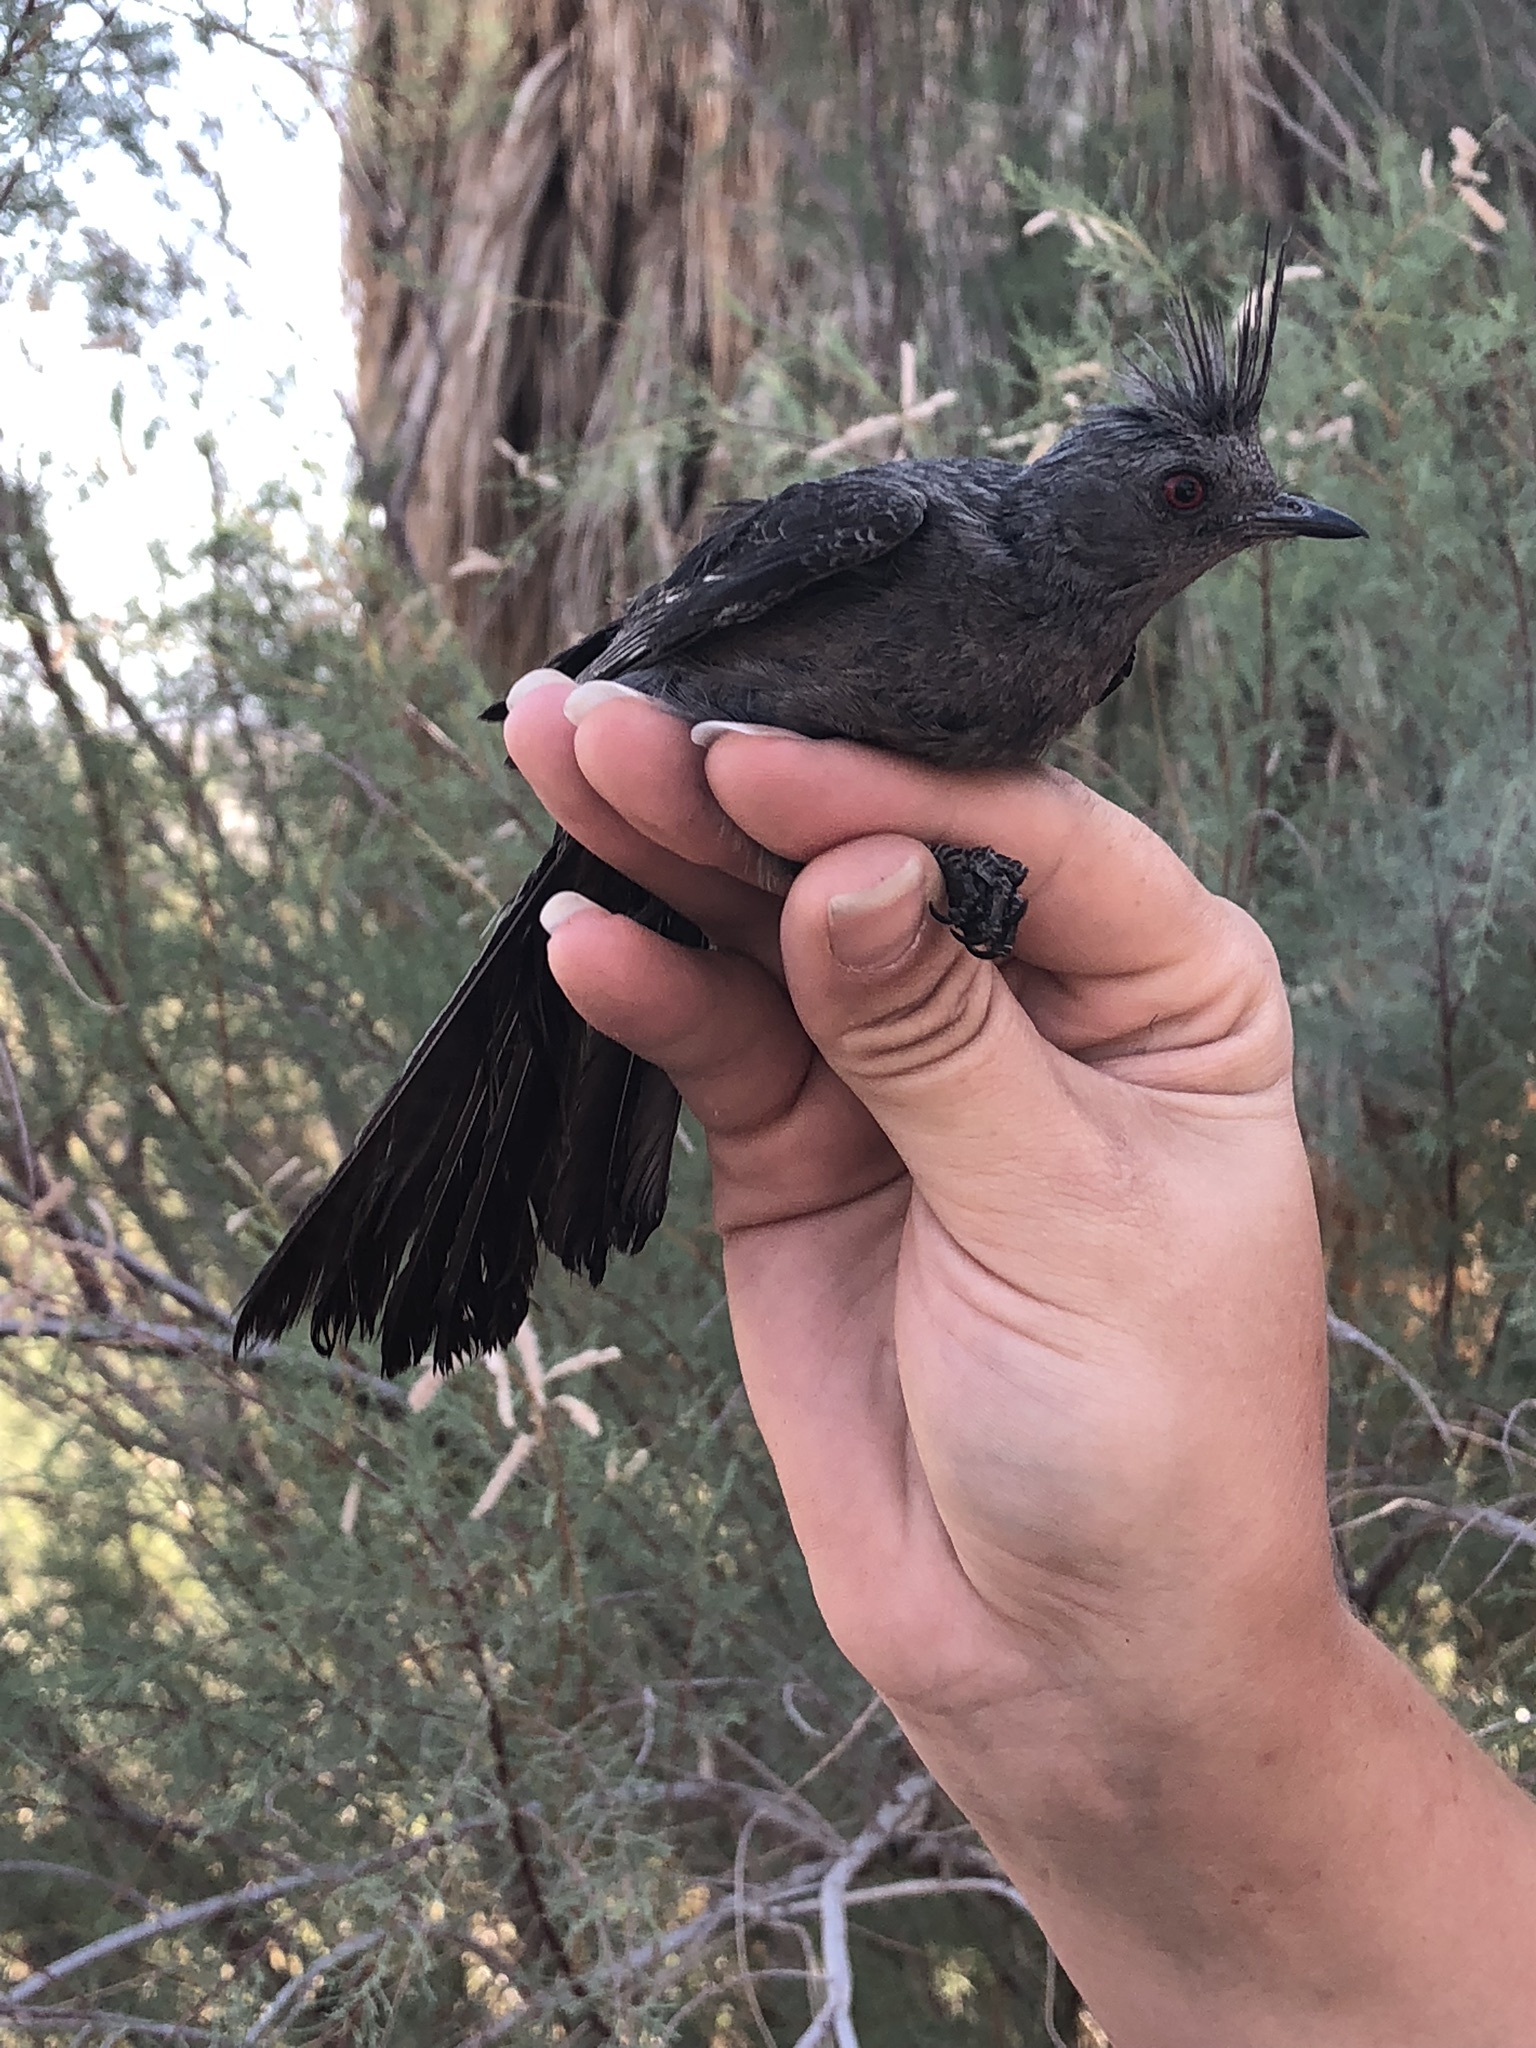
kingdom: Animalia
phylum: Chordata
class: Aves
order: Passeriformes
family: Ptilogonatidae
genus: Phainopepla
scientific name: Phainopepla nitens
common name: Phainopepla
